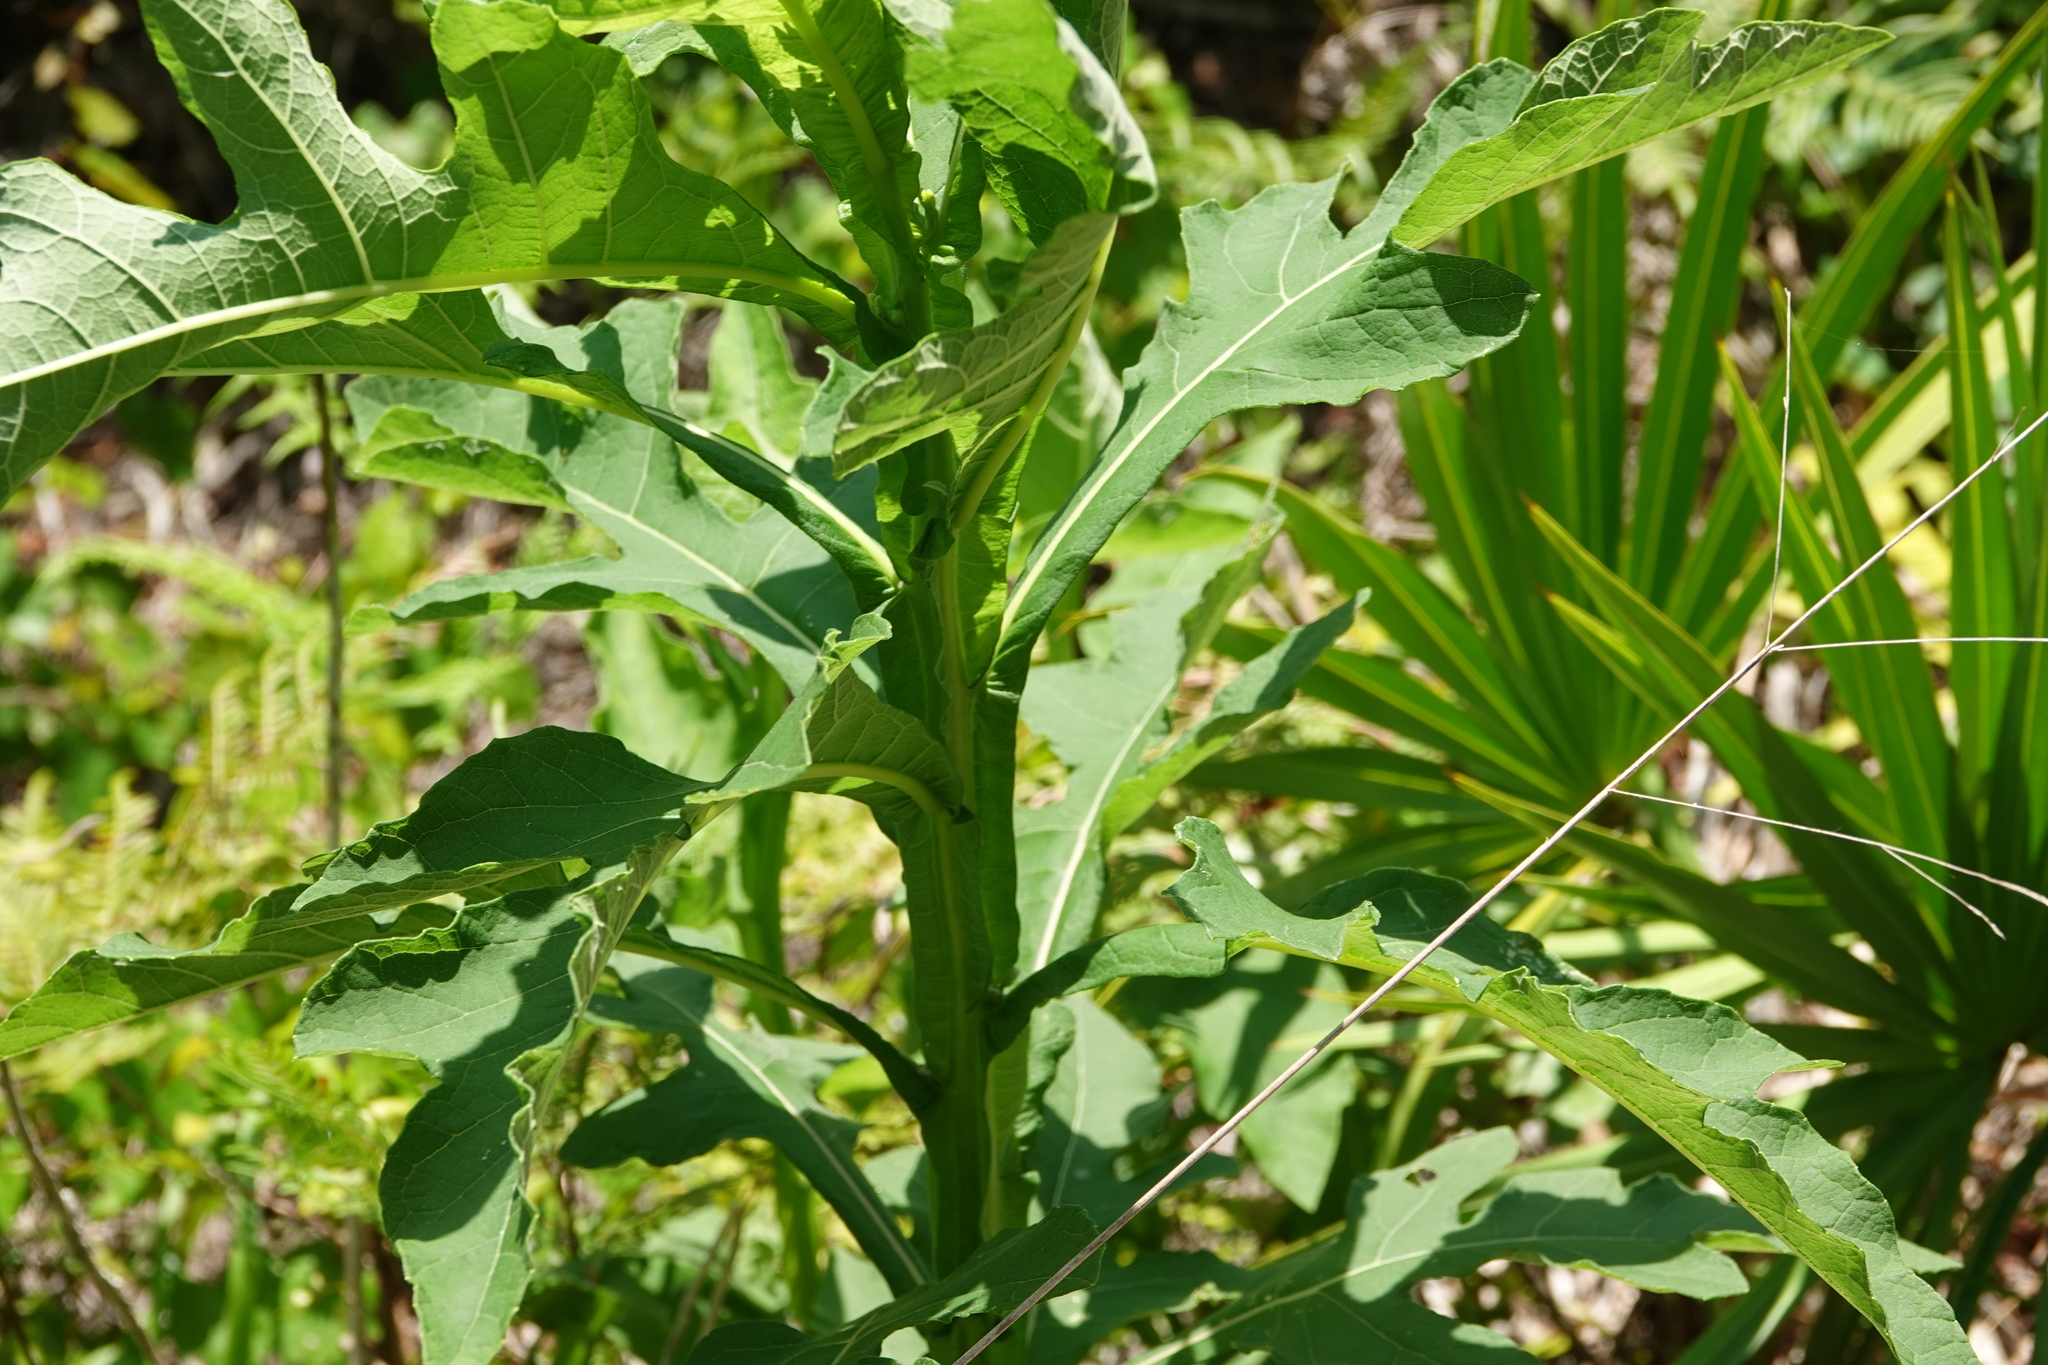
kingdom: Plantae
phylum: Tracheophyta
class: Magnoliopsida
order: Asterales
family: Asteraceae
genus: Verbesina
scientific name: Verbesina virginica
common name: Frostweed
